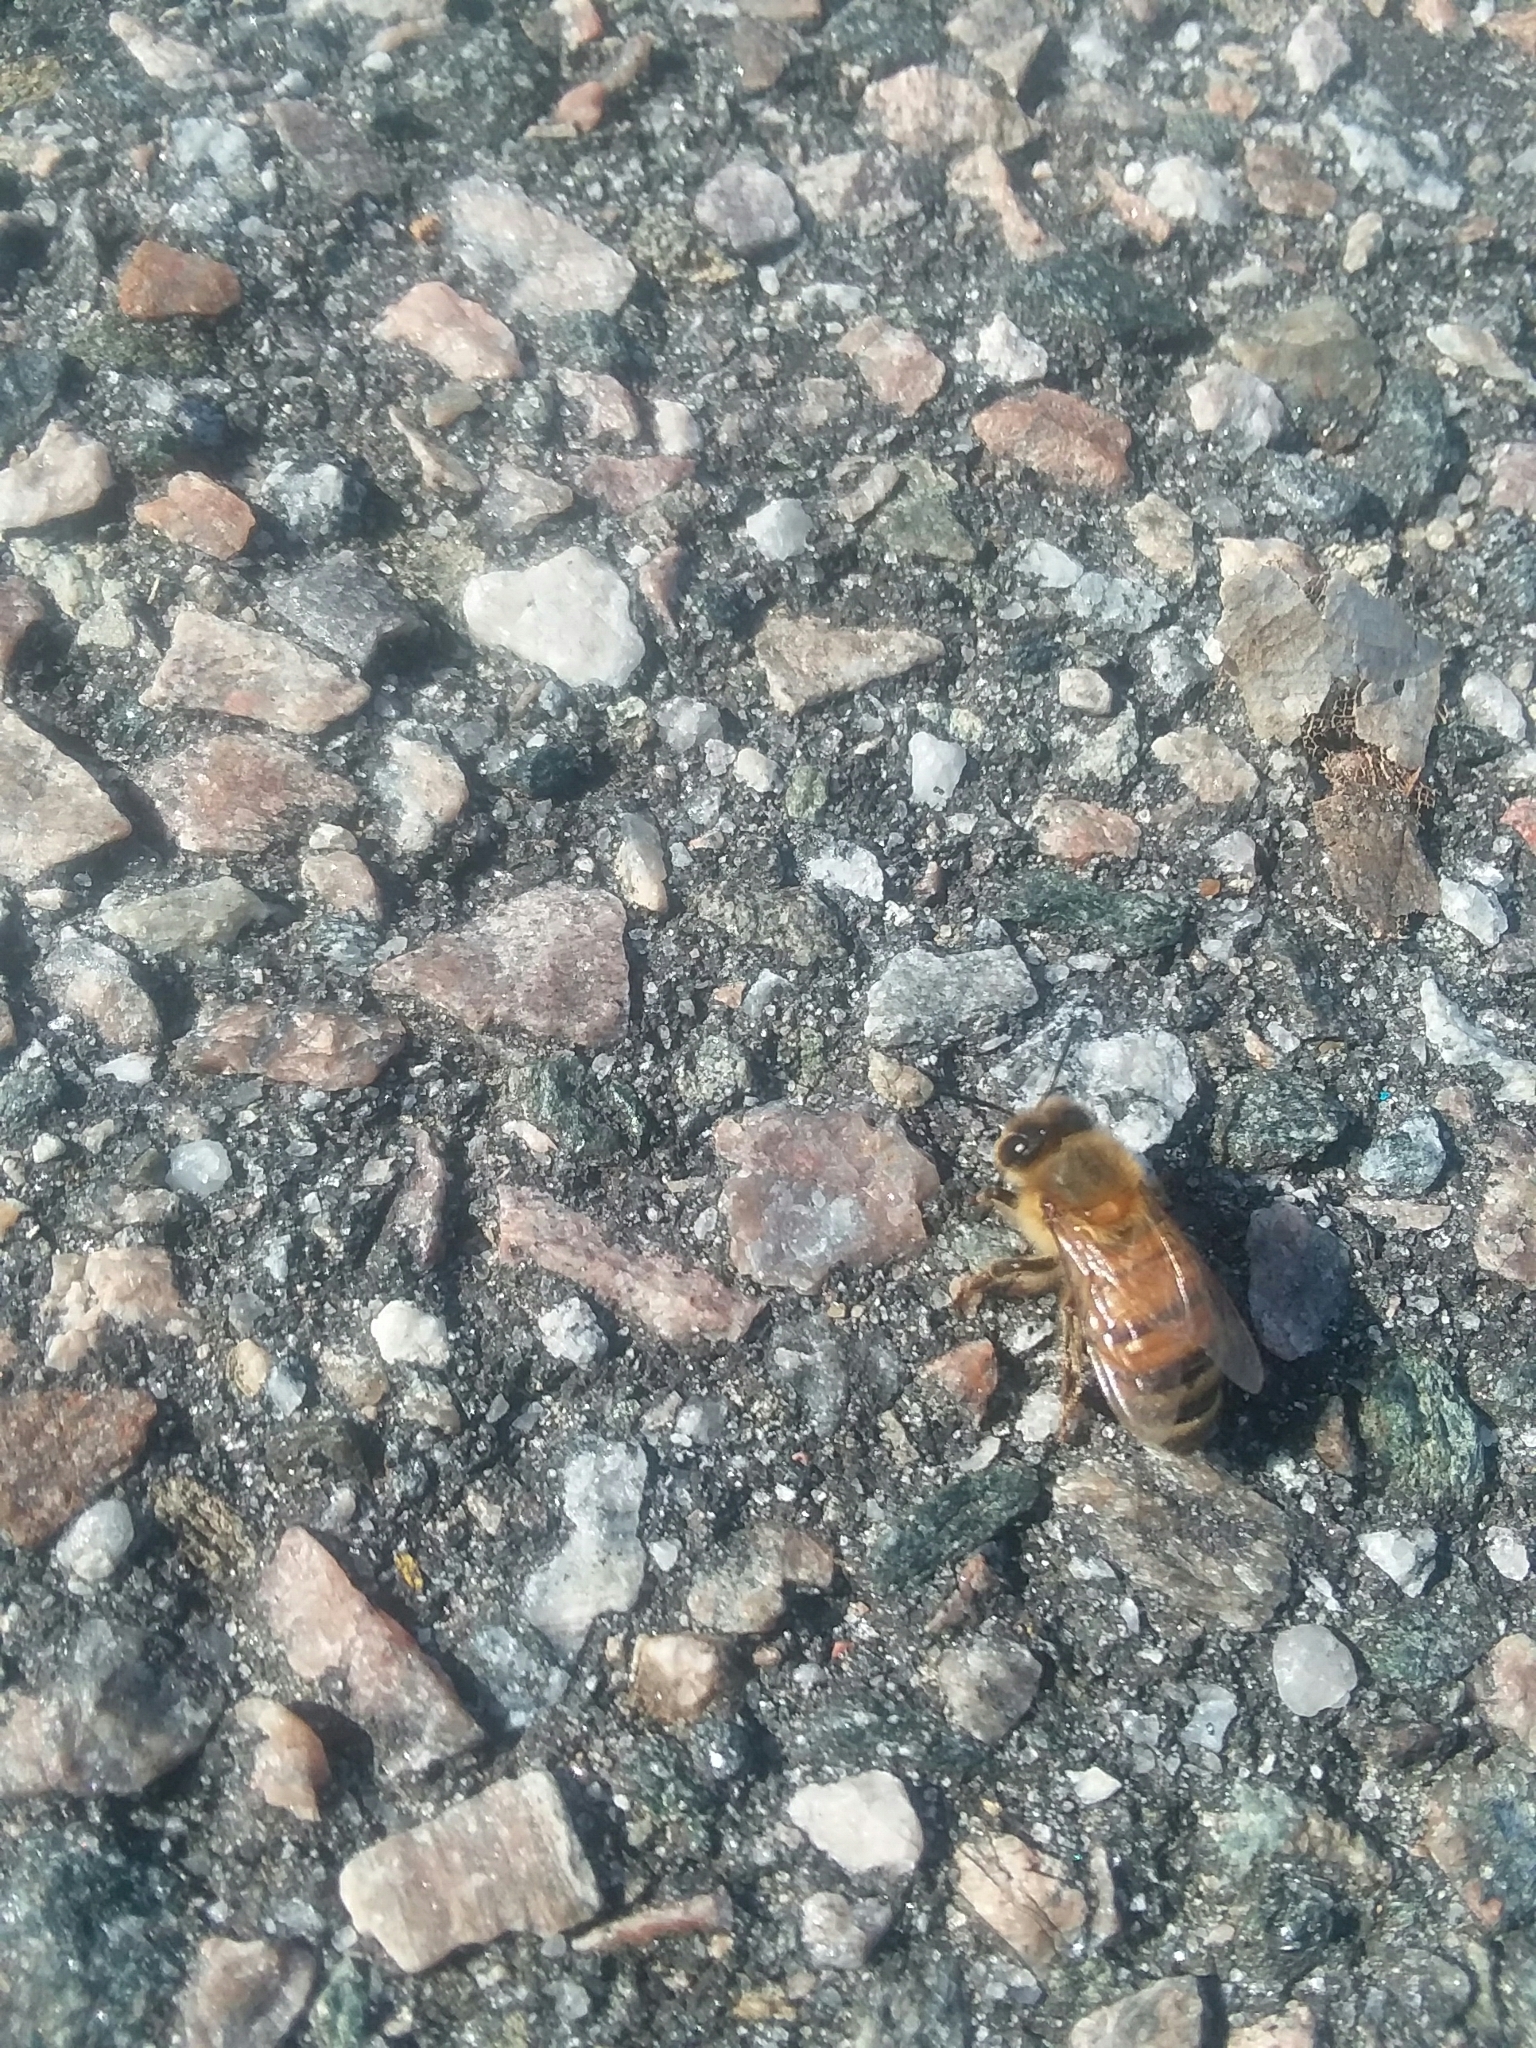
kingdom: Animalia
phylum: Arthropoda
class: Insecta
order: Hymenoptera
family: Apidae
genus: Apis
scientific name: Apis mellifera
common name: Honey bee
